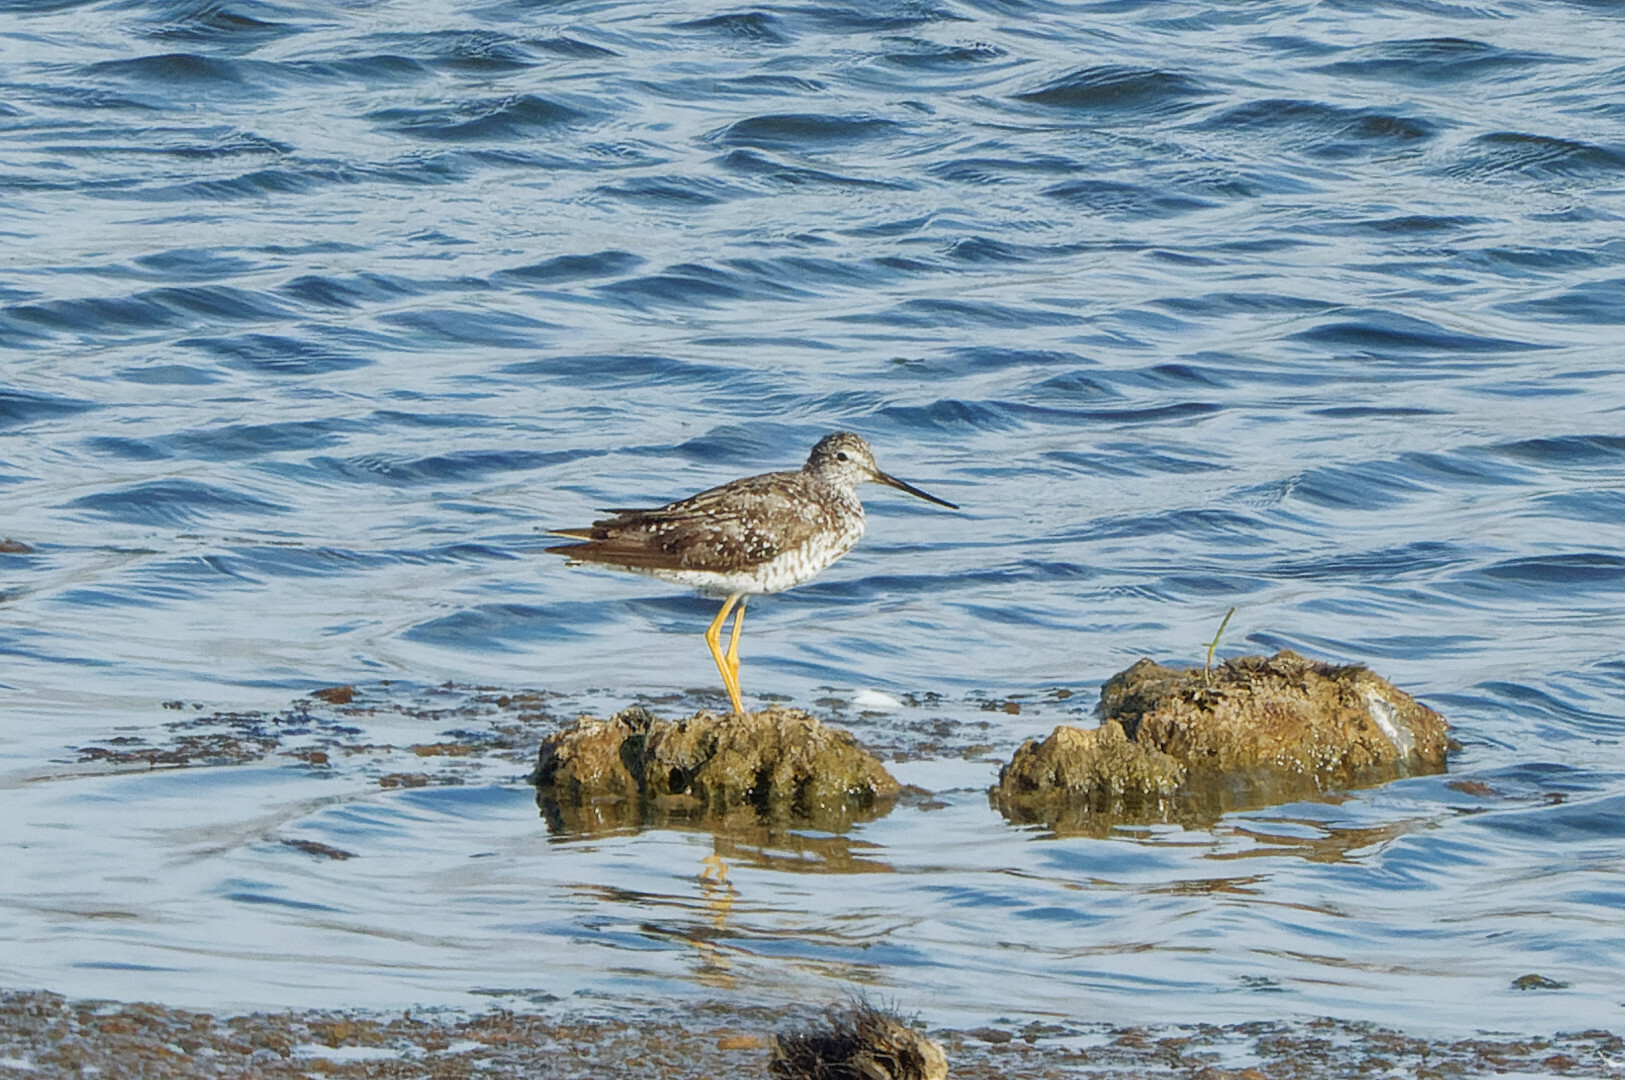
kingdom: Animalia
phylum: Chordata
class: Aves
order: Charadriiformes
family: Scolopacidae
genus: Tringa
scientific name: Tringa melanoleuca
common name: Greater yellowlegs
